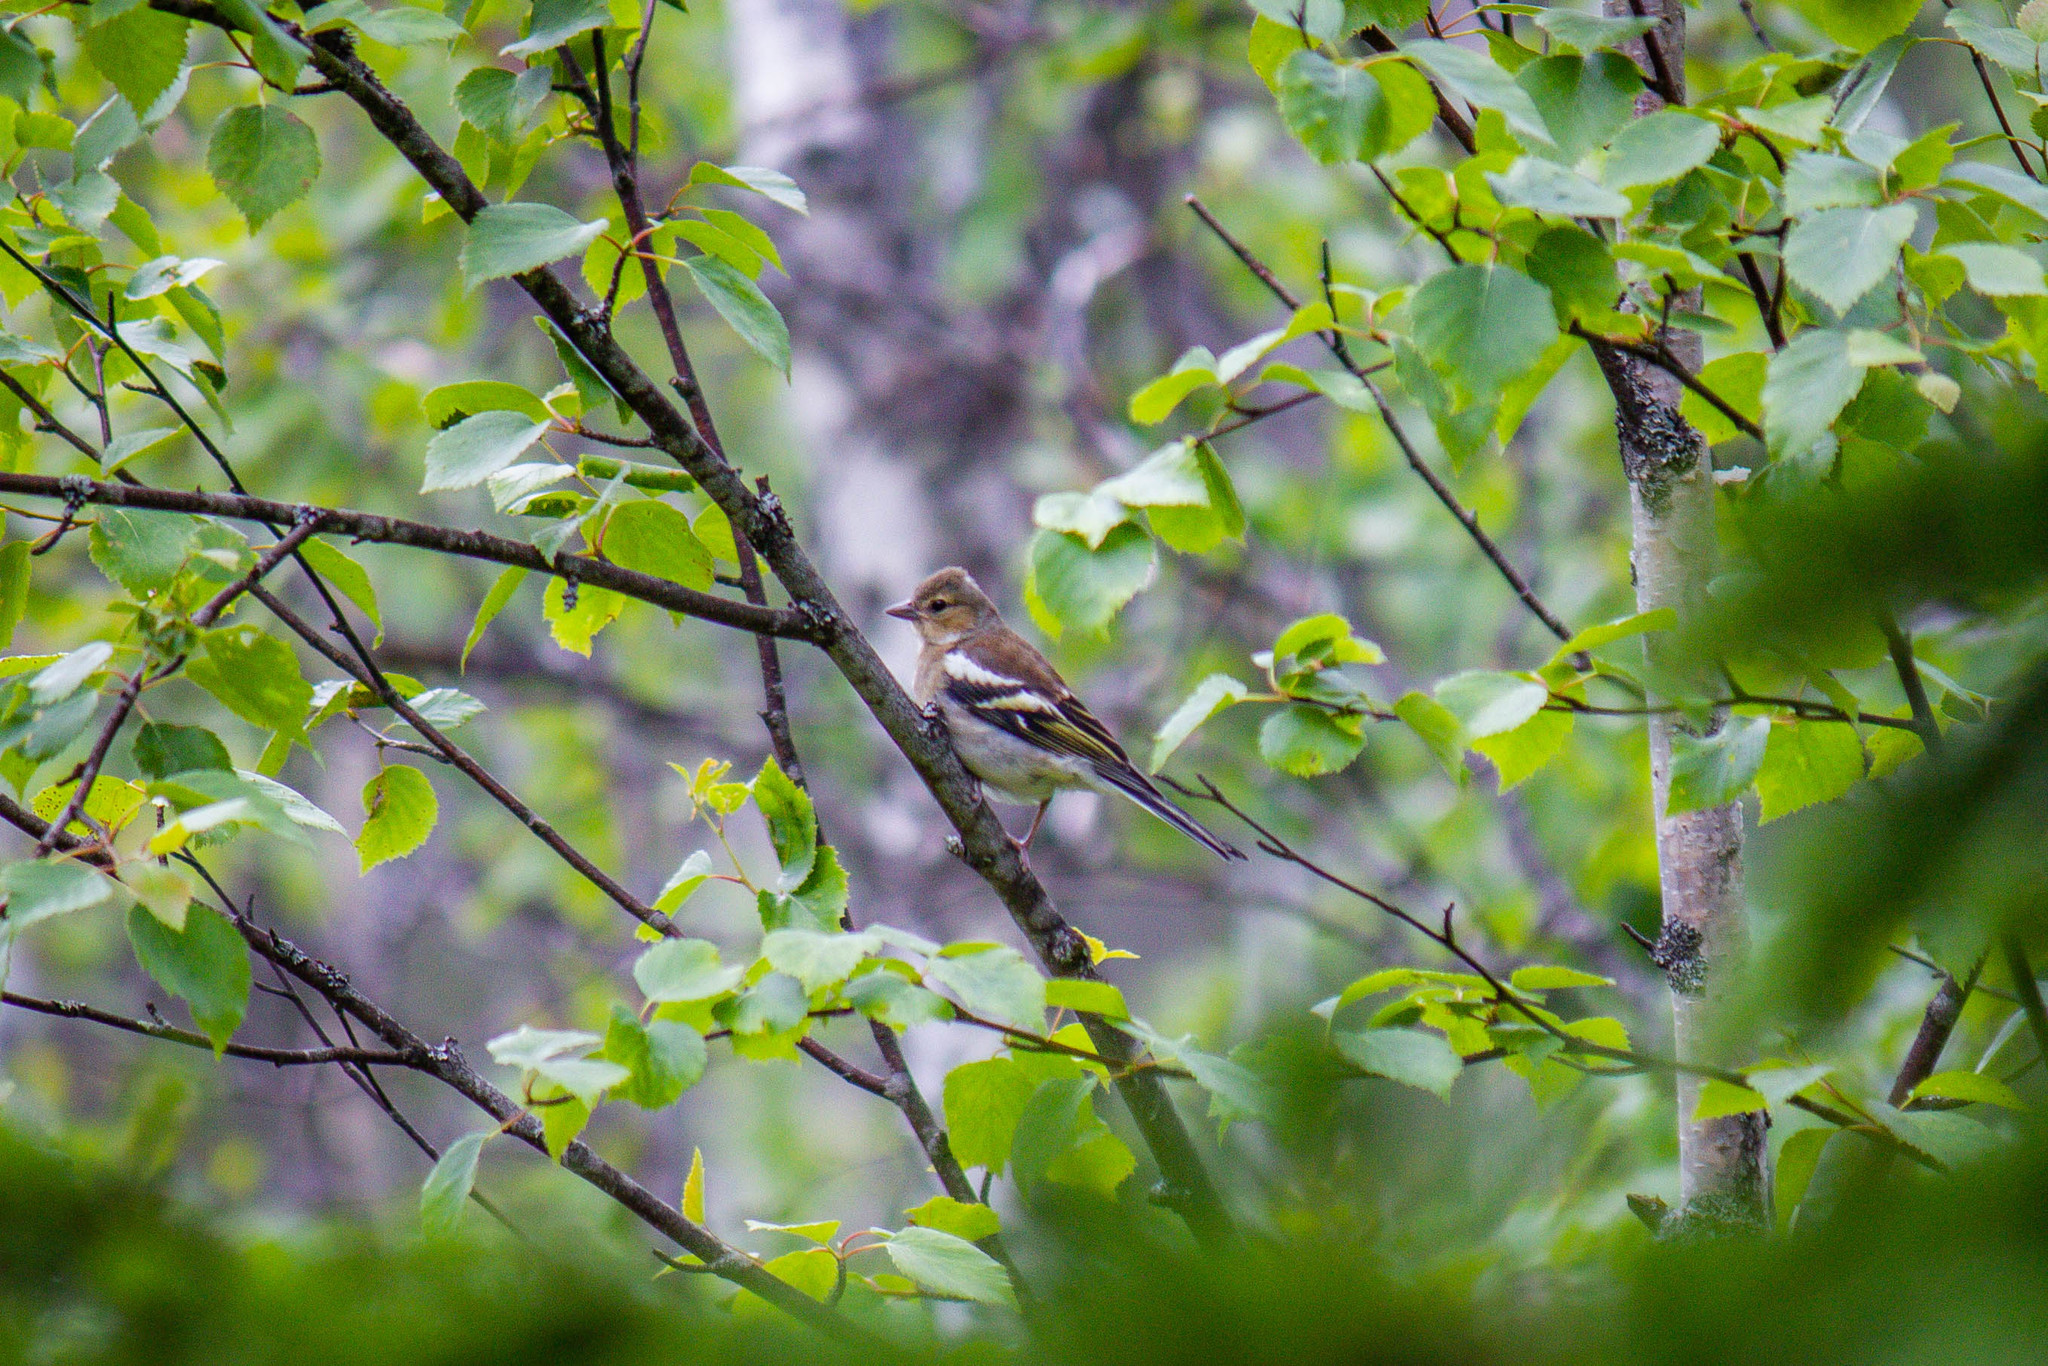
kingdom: Animalia
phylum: Chordata
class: Aves
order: Passeriformes
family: Fringillidae
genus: Fringilla
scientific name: Fringilla coelebs
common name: Common chaffinch
